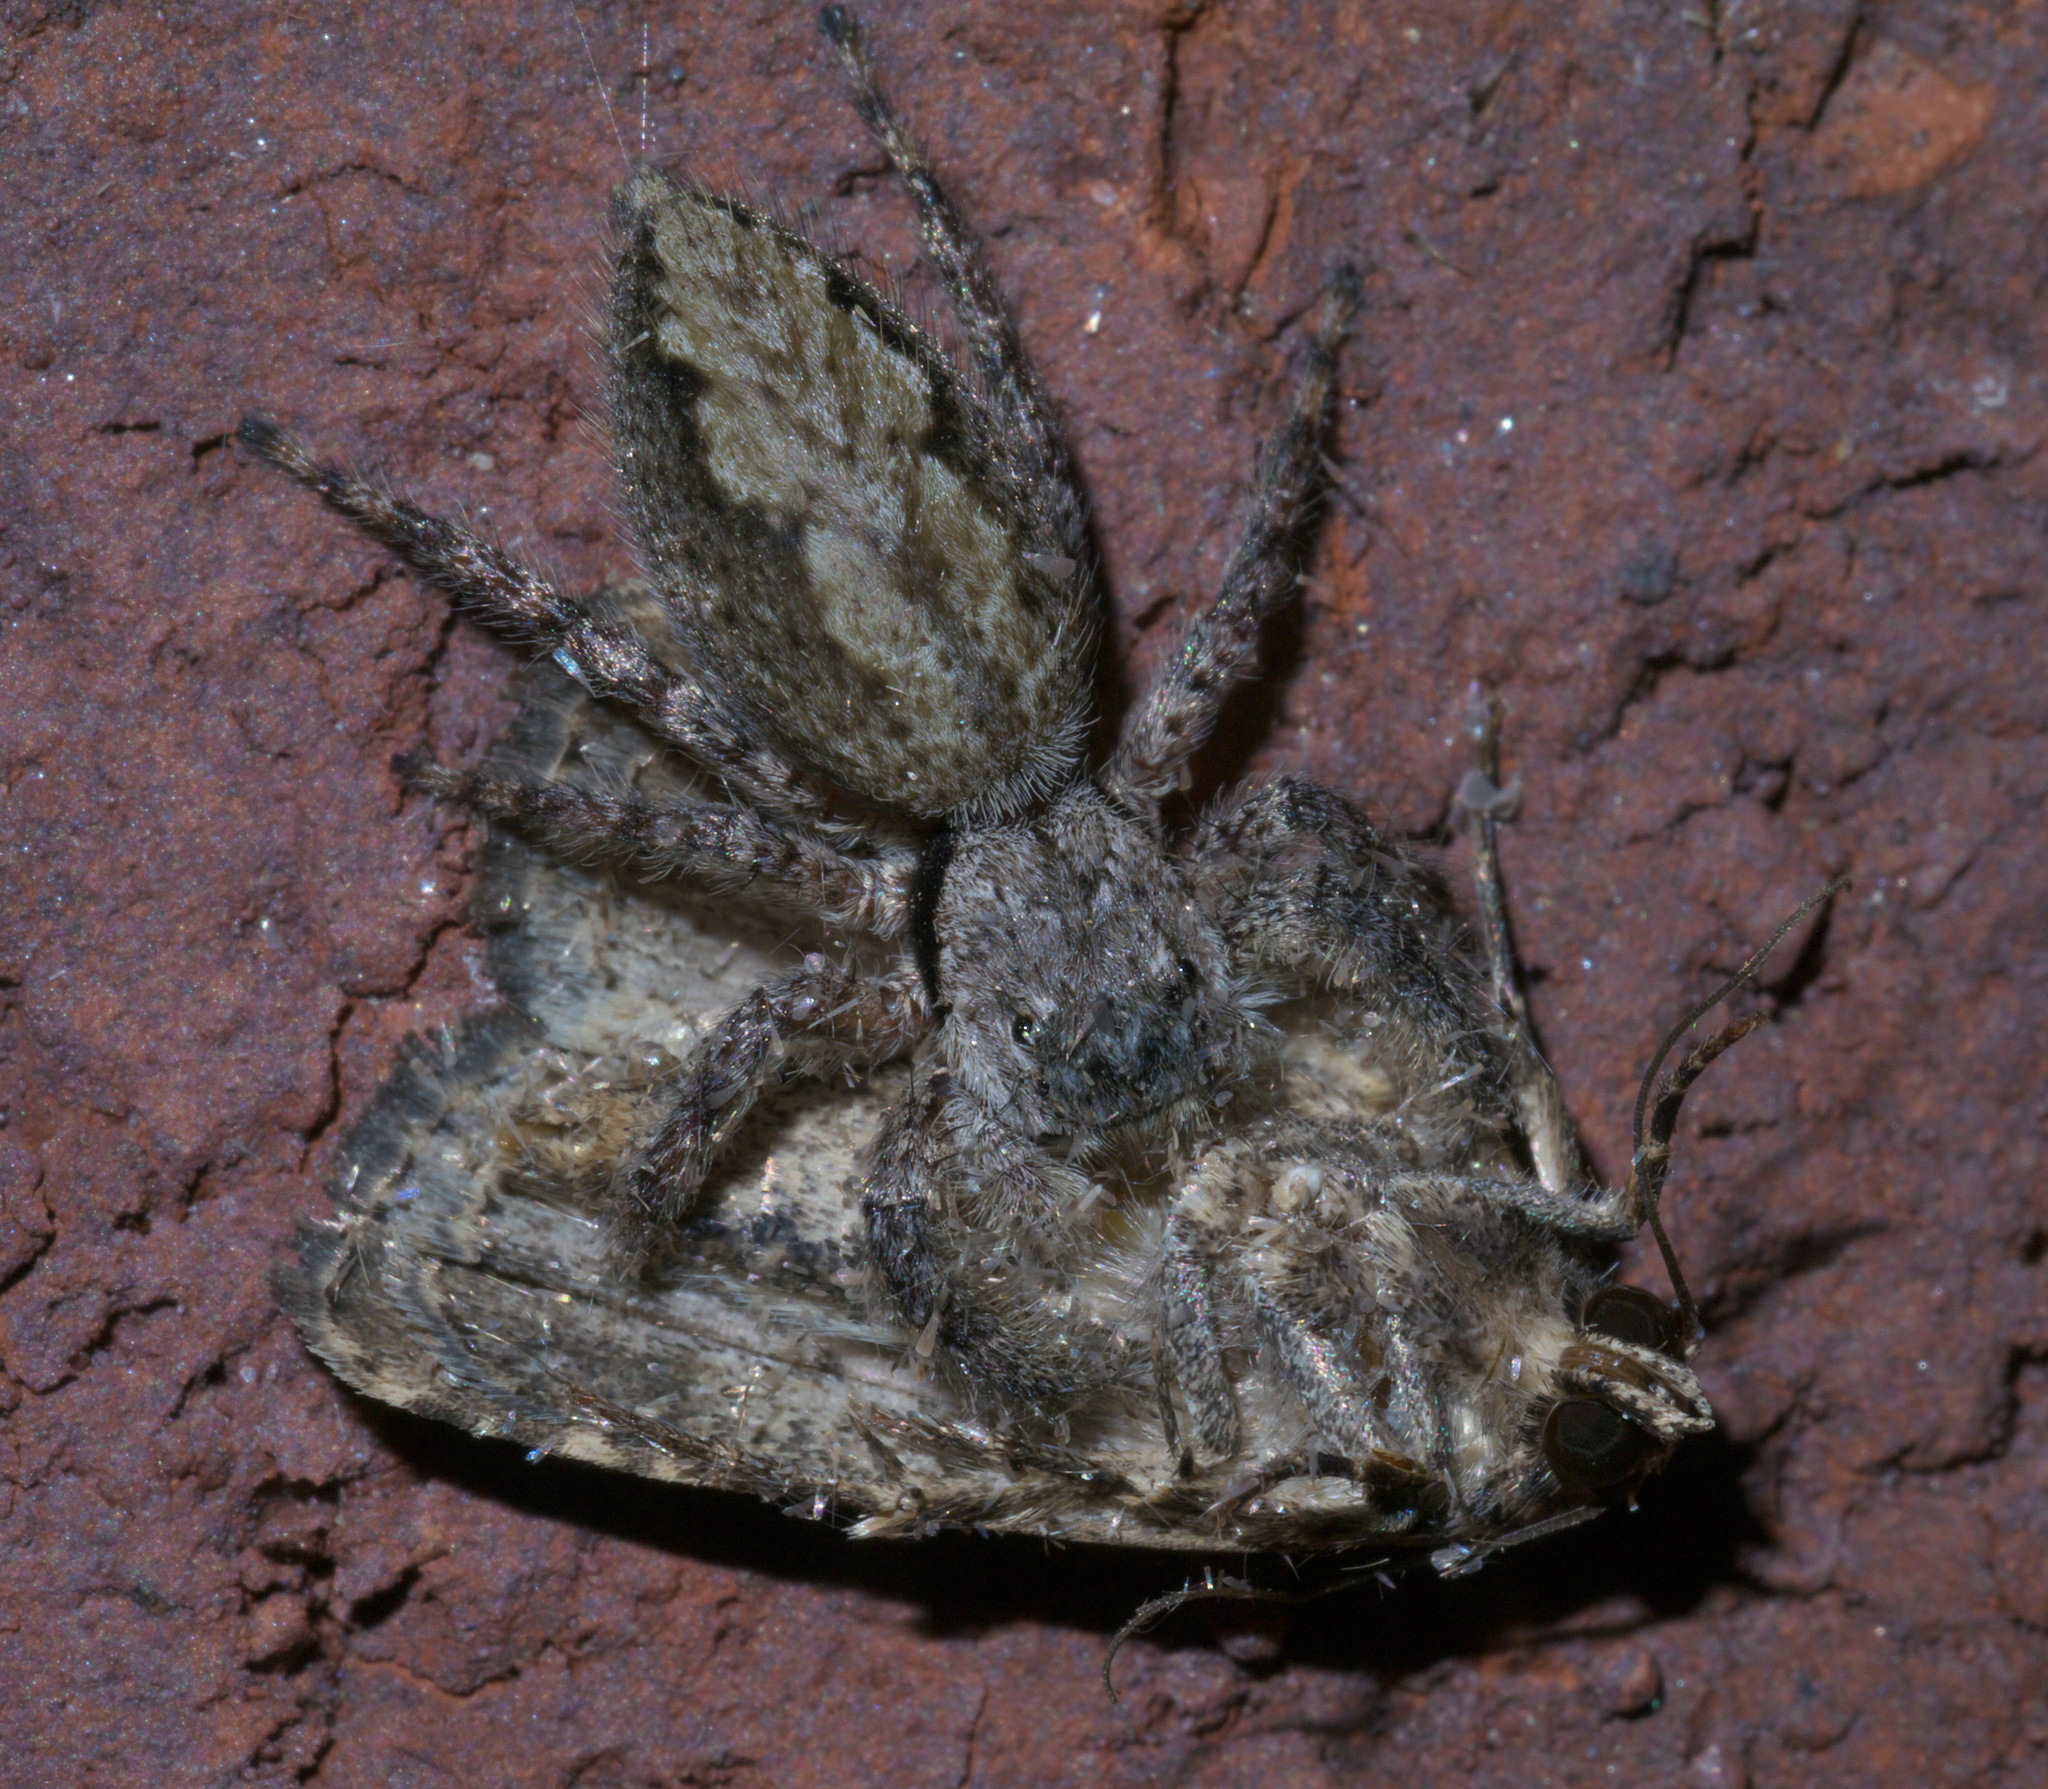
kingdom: Animalia
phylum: Arthropoda
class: Arachnida
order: Araneae
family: Salticidae
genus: Platycryptus
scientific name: Platycryptus undatus
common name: Tan jumping spider
